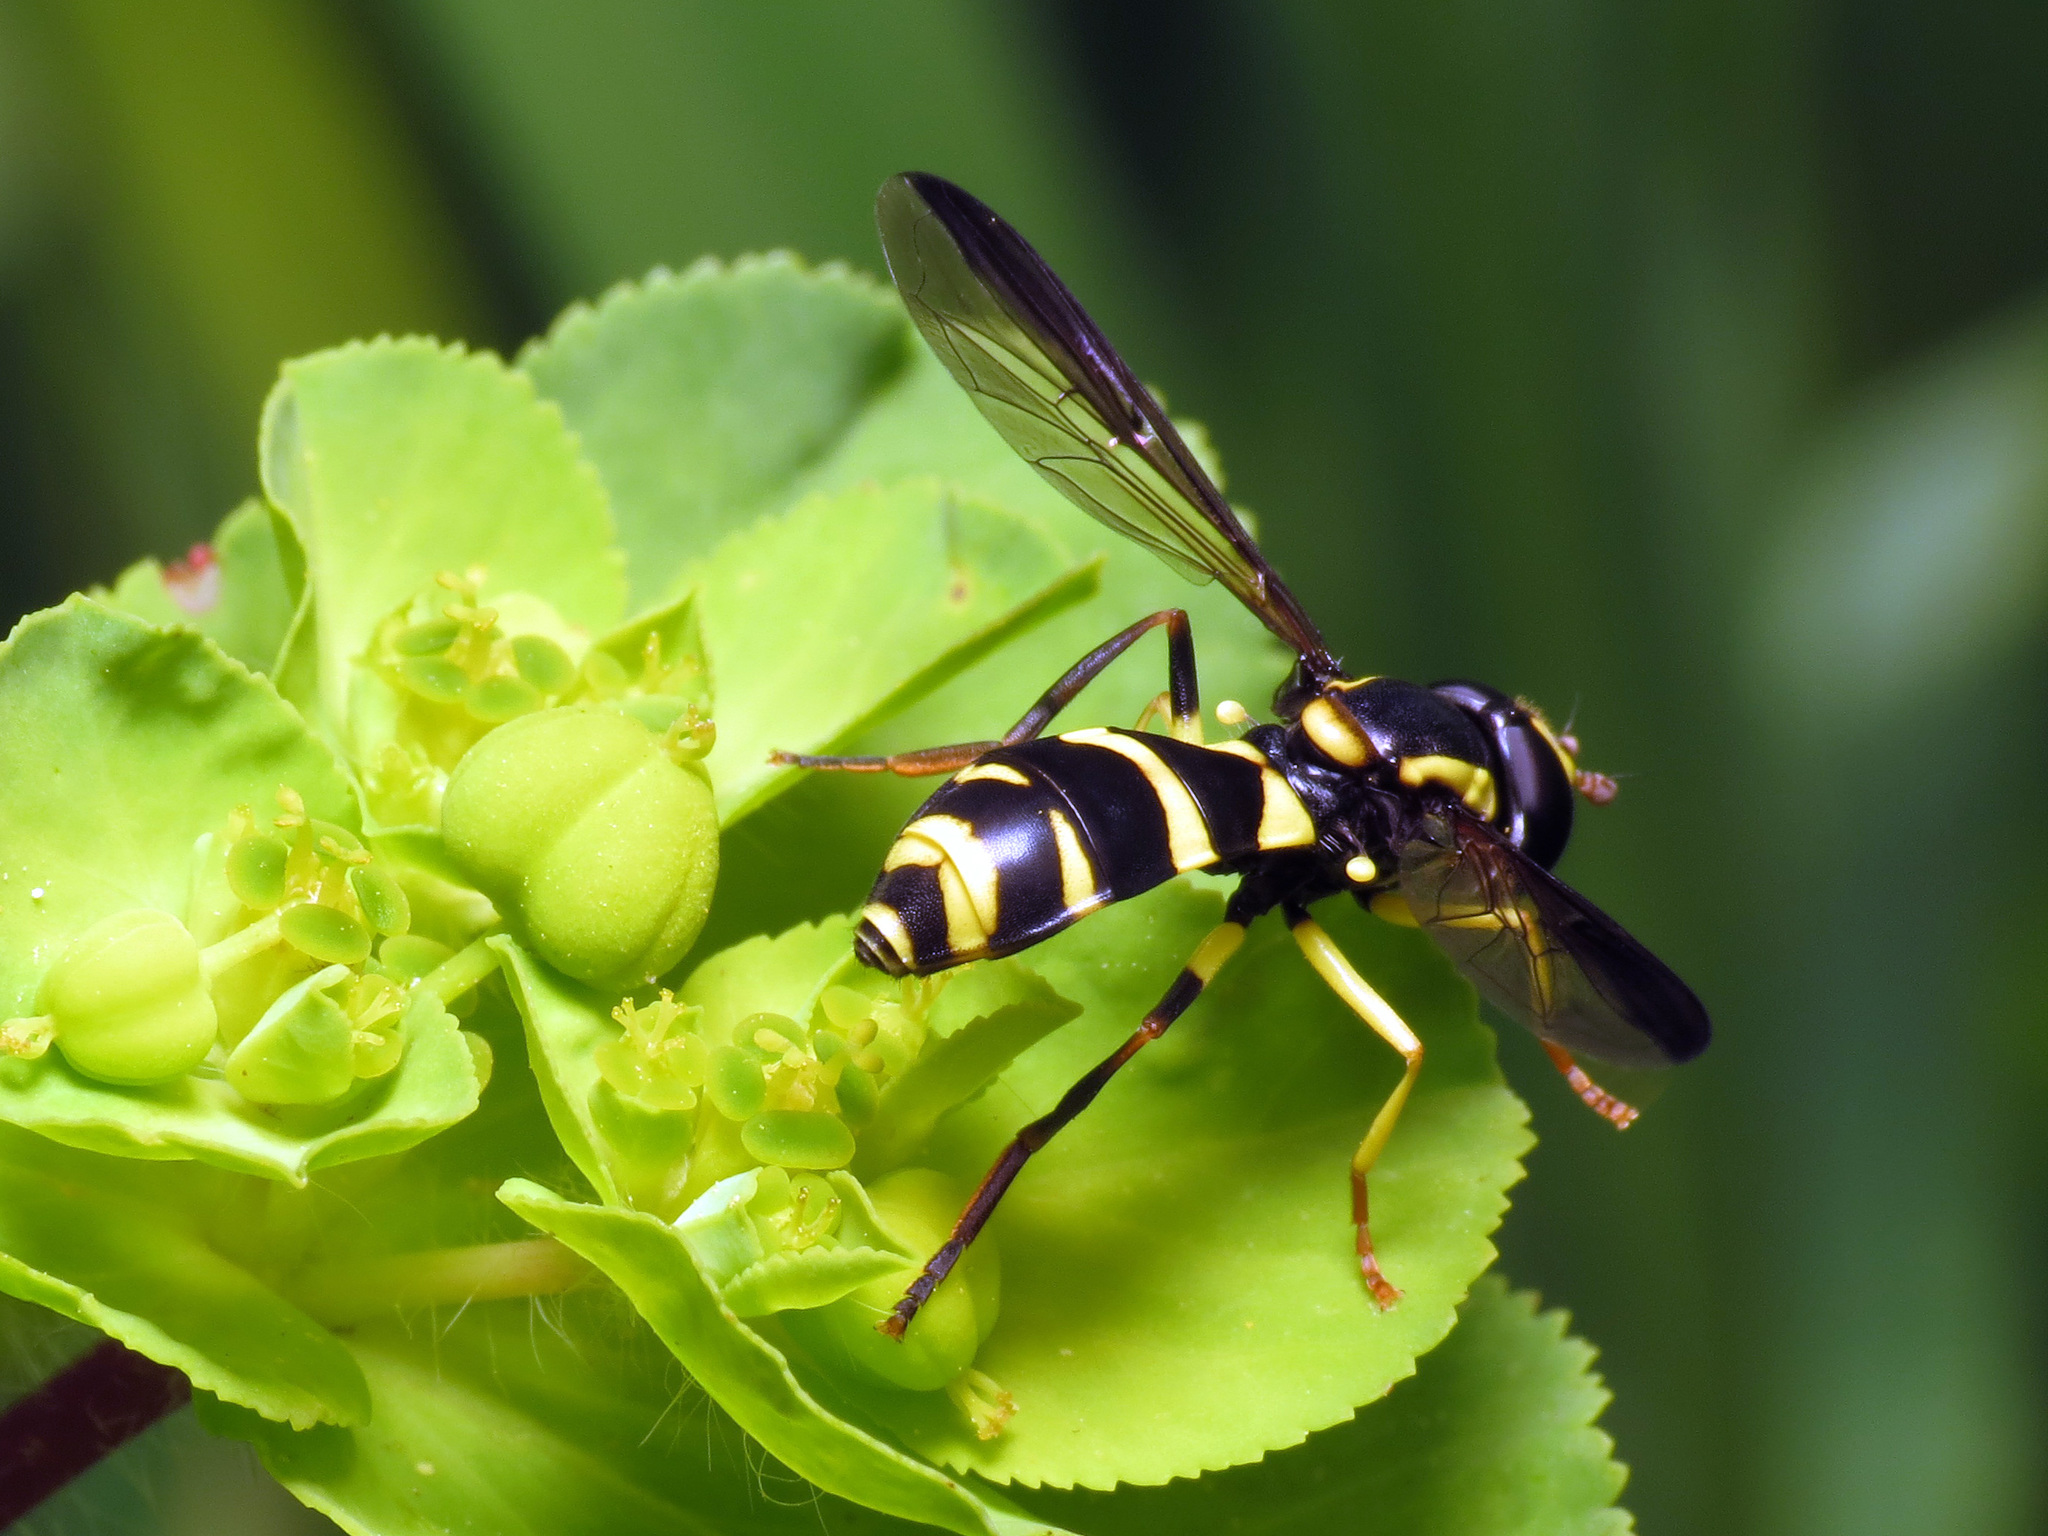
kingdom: Animalia
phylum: Arthropoda
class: Insecta
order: Diptera
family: Syrphidae
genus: Philhelius
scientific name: Philhelius marginalis
